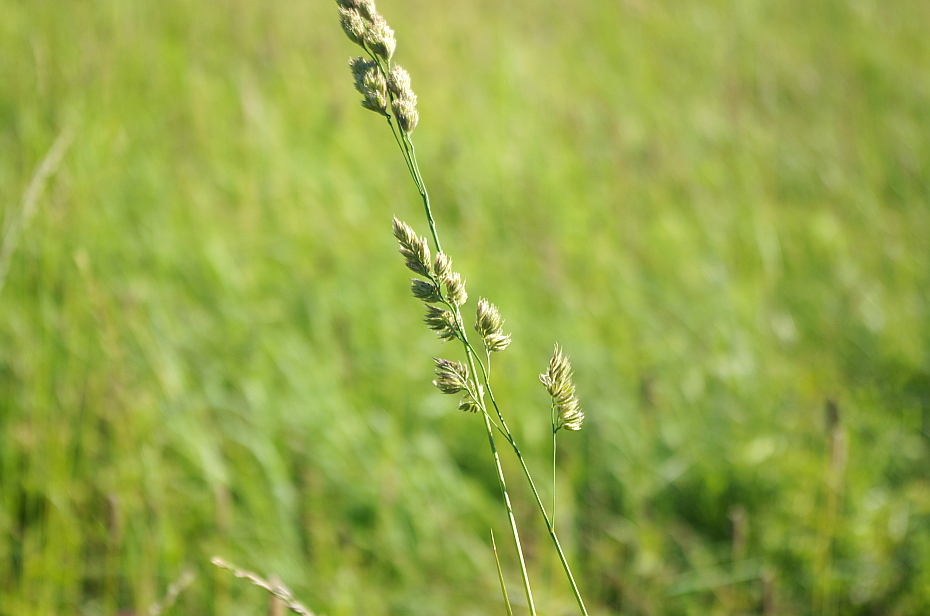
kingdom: Plantae
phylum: Tracheophyta
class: Liliopsida
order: Poales
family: Poaceae
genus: Dactylis
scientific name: Dactylis glomerata
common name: Orchardgrass
